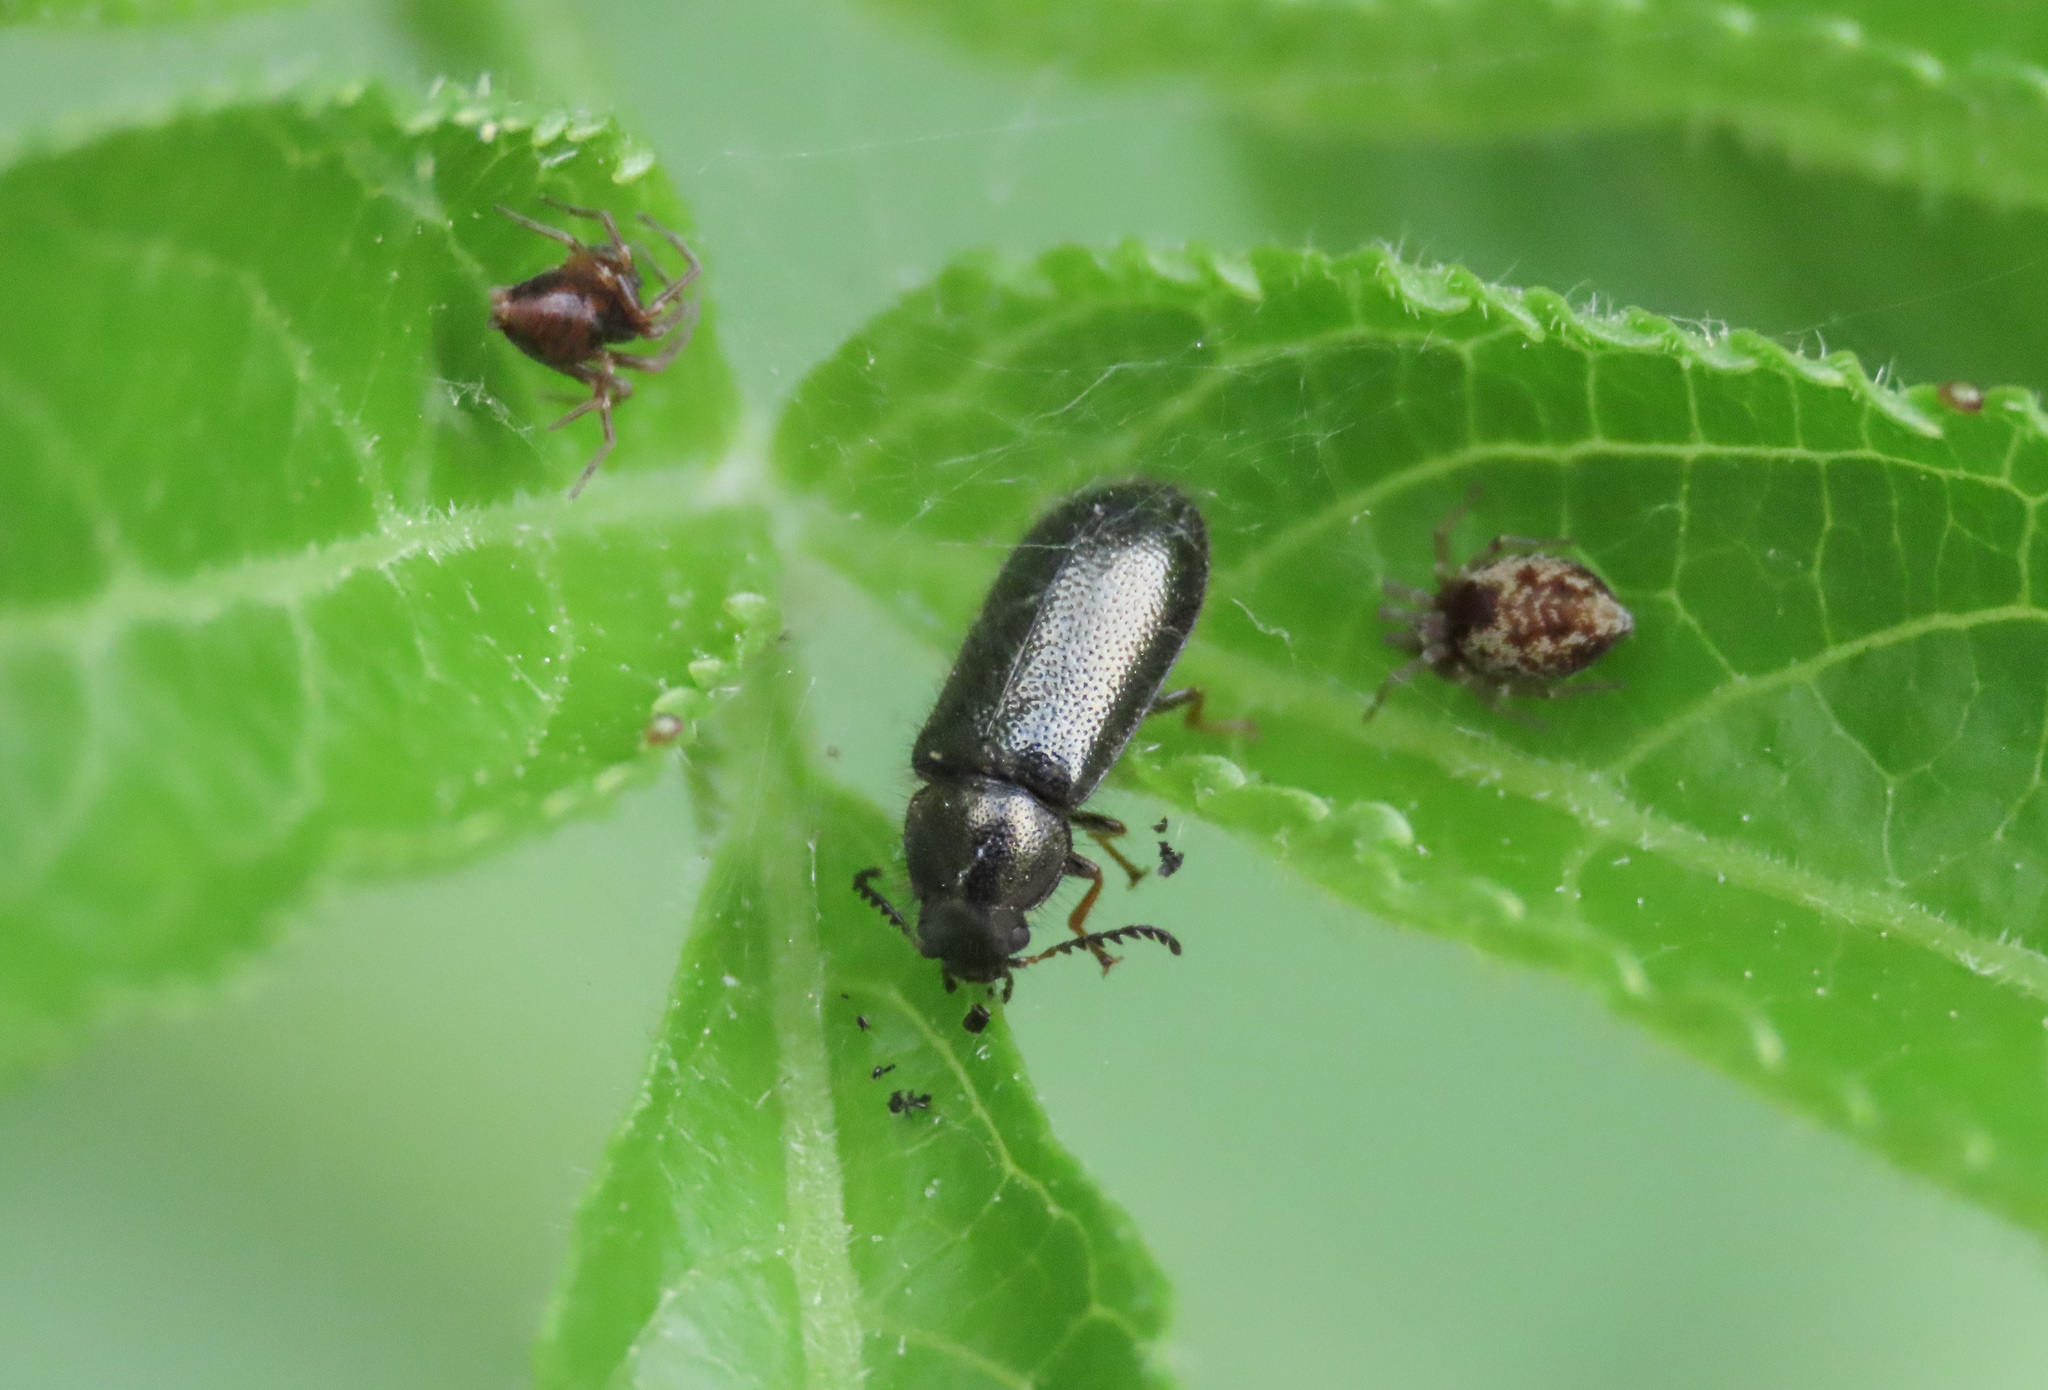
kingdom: Animalia
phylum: Arthropoda
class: Insecta
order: Coleoptera
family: Dasytidae
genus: Aplocnemus
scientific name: Aplocnemus chalconatus
